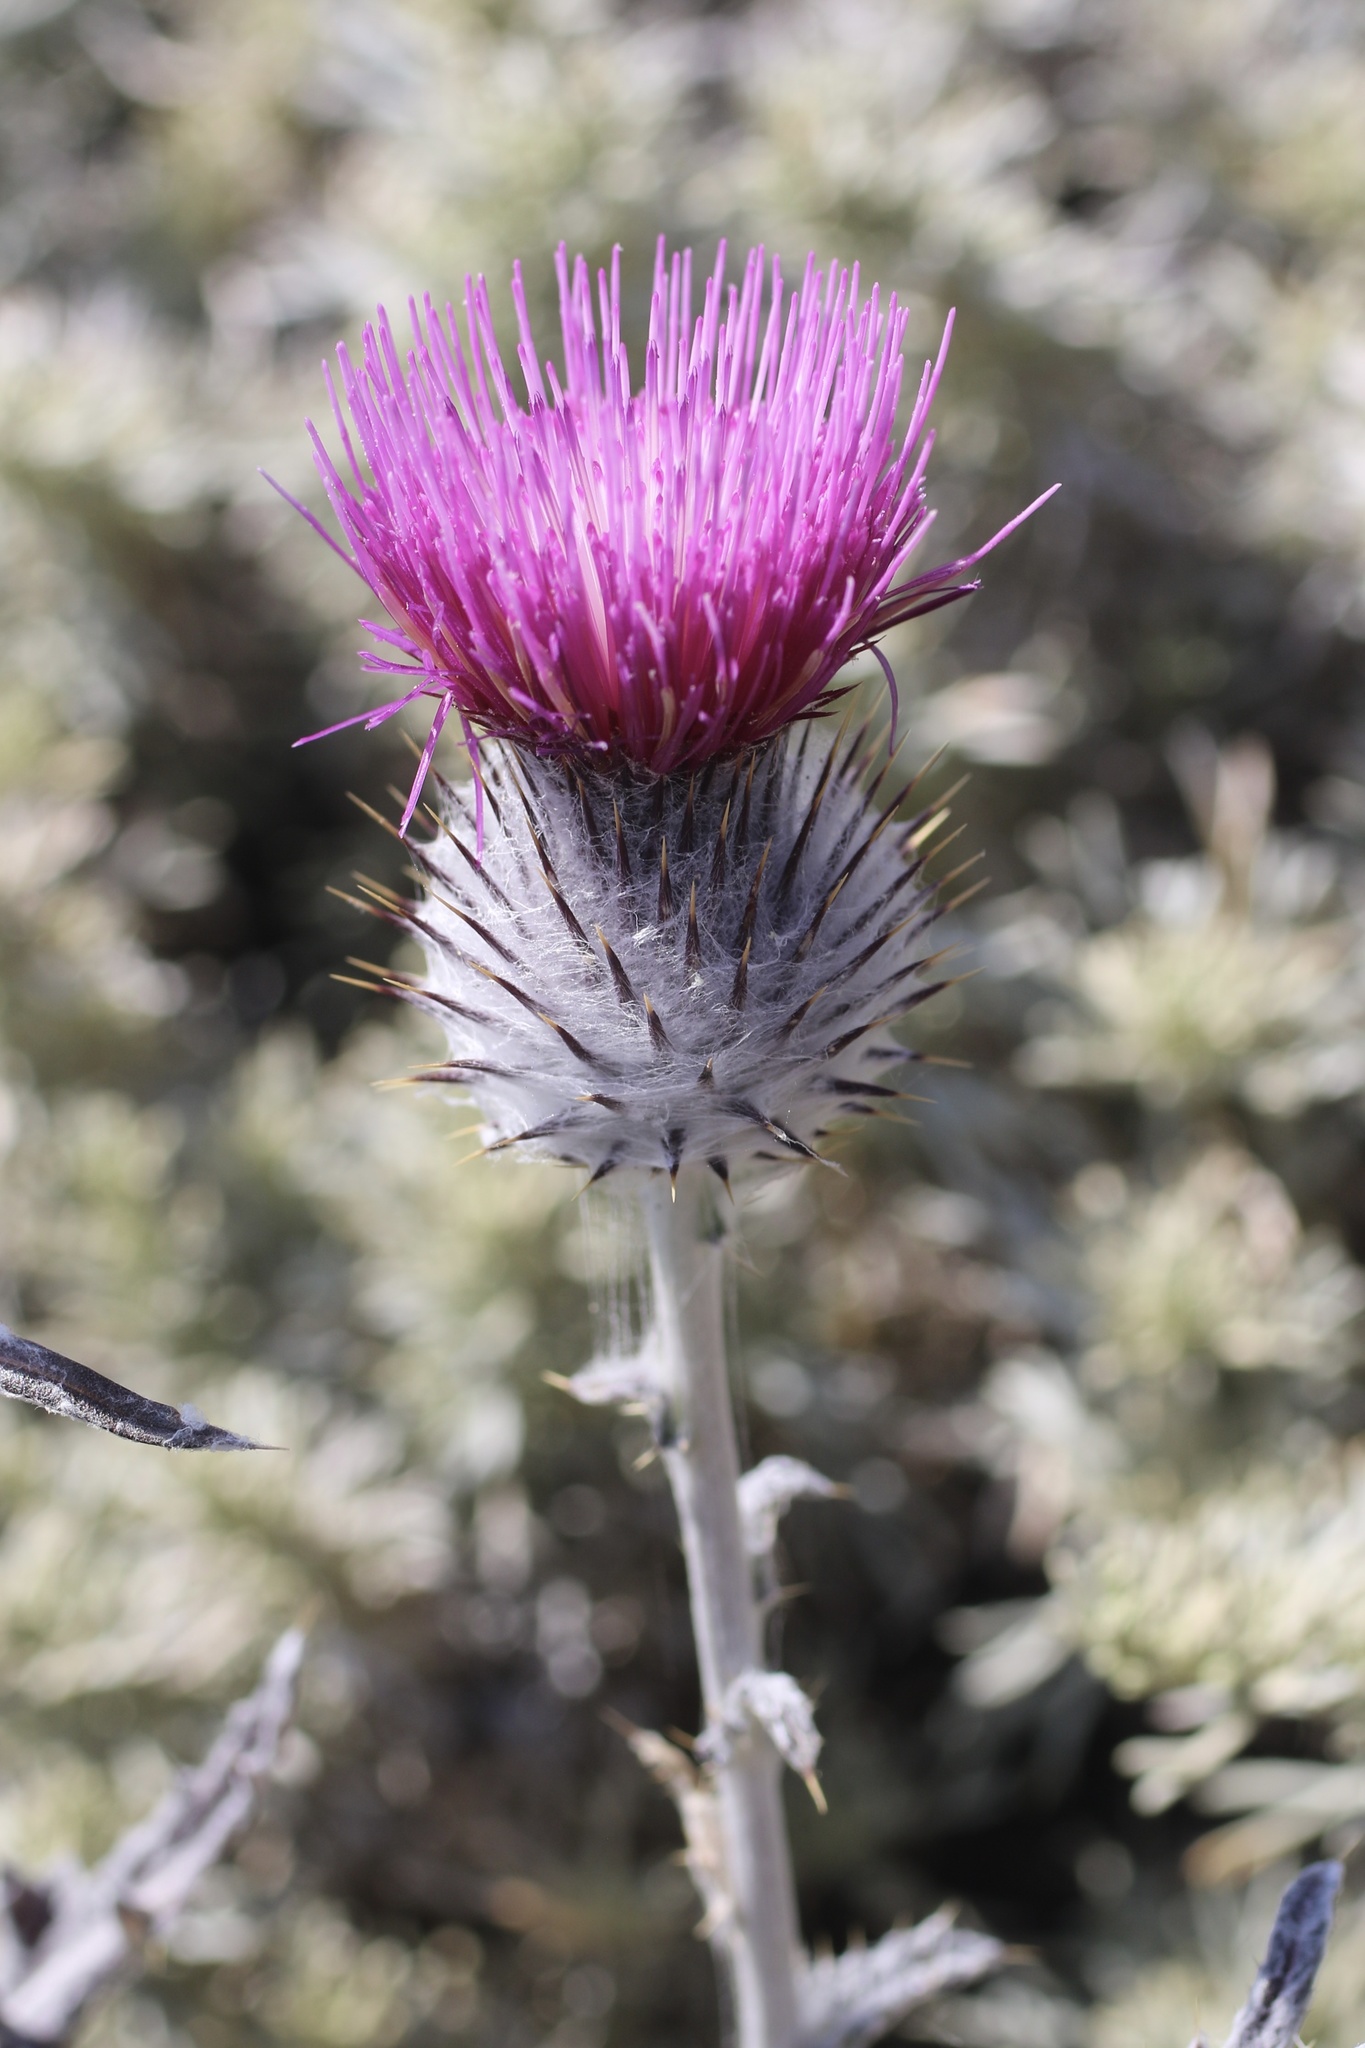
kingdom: Plantae
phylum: Tracheophyta
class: Magnoliopsida
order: Asterales
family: Asteraceae
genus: Cirsium
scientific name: Cirsium occidentale
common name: Western thistle
